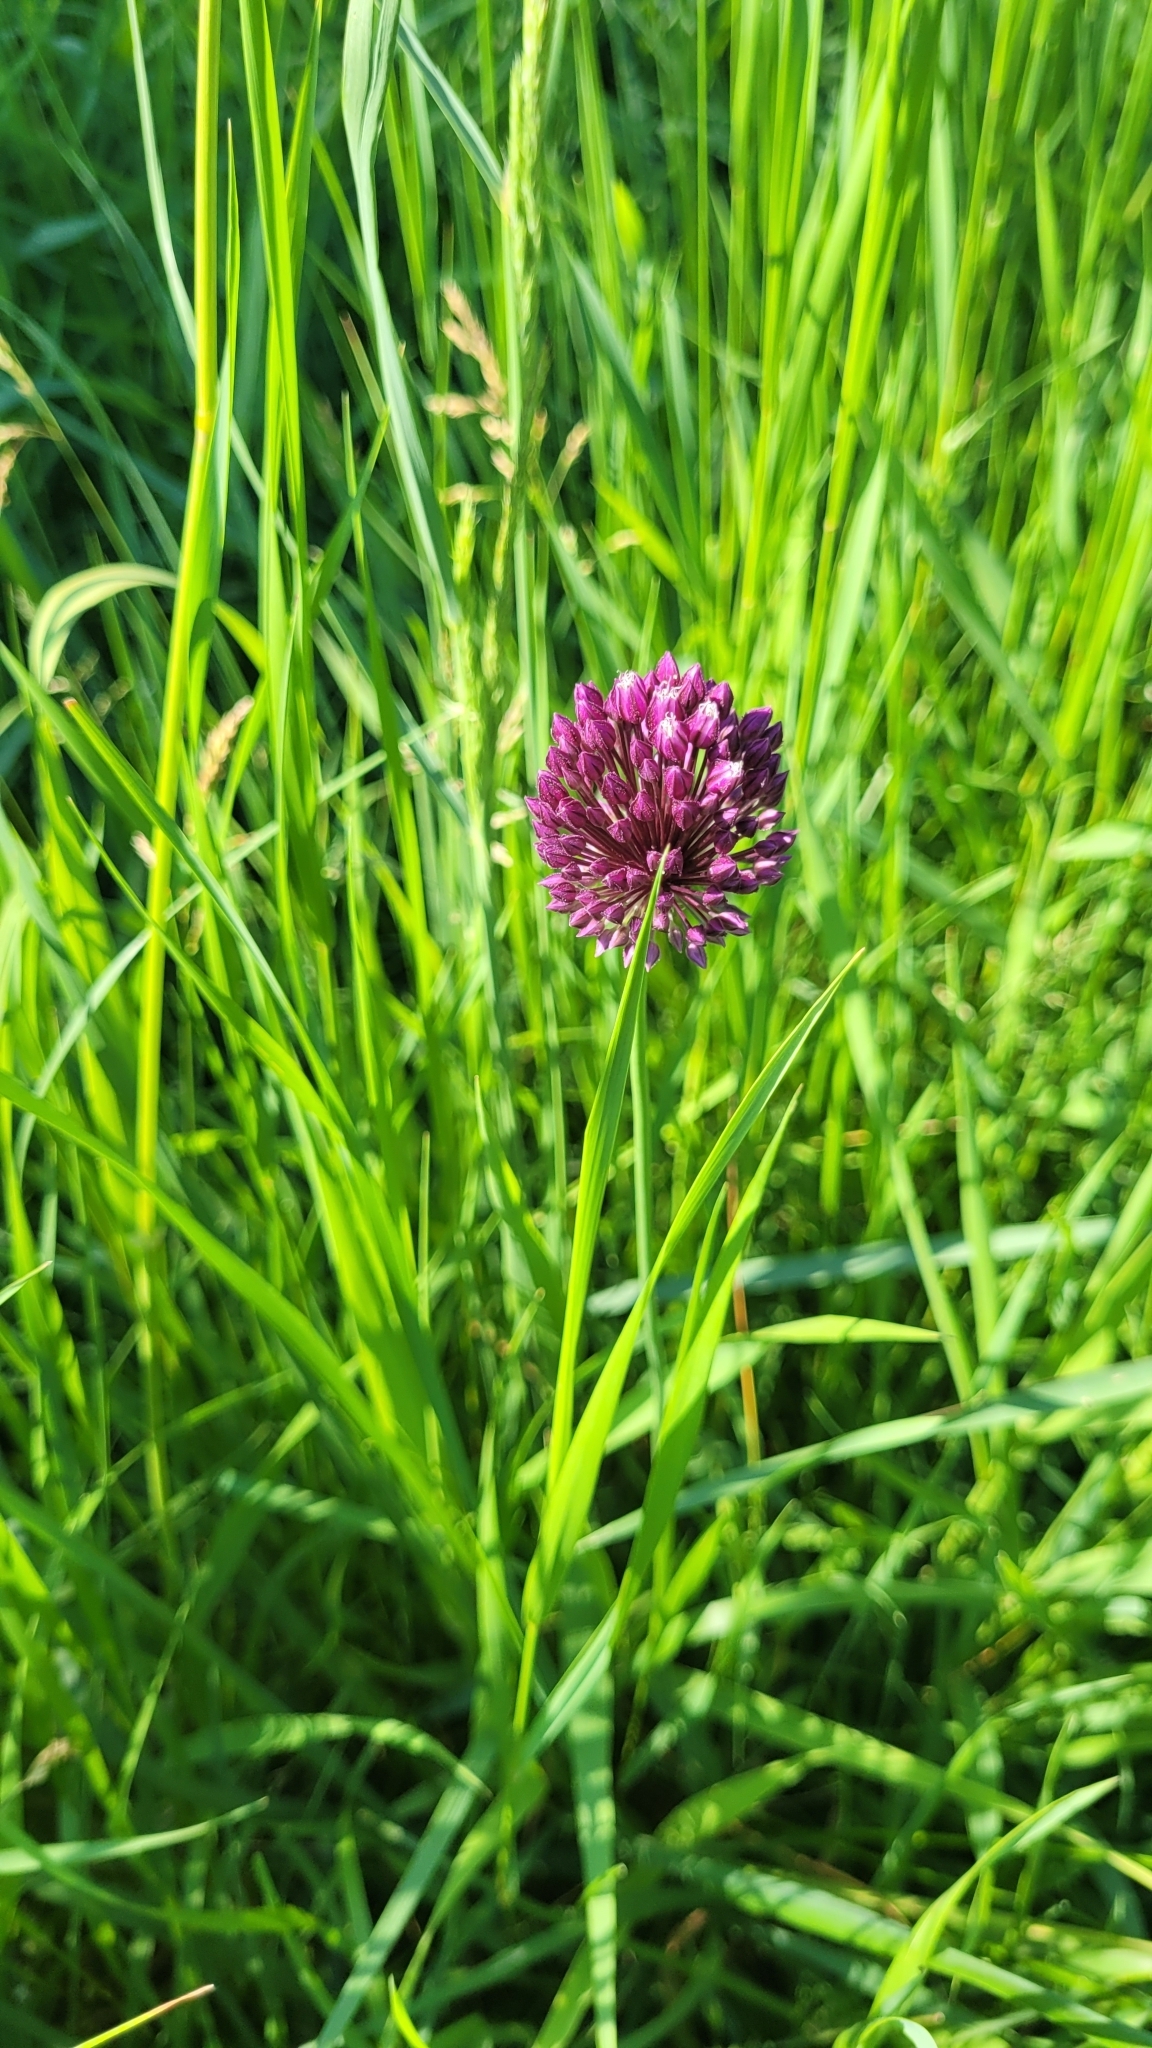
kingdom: Plantae
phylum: Tracheophyta
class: Liliopsida
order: Asparagales
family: Amaryllidaceae
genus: Allium
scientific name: Allium rotundum
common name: Sand leek
